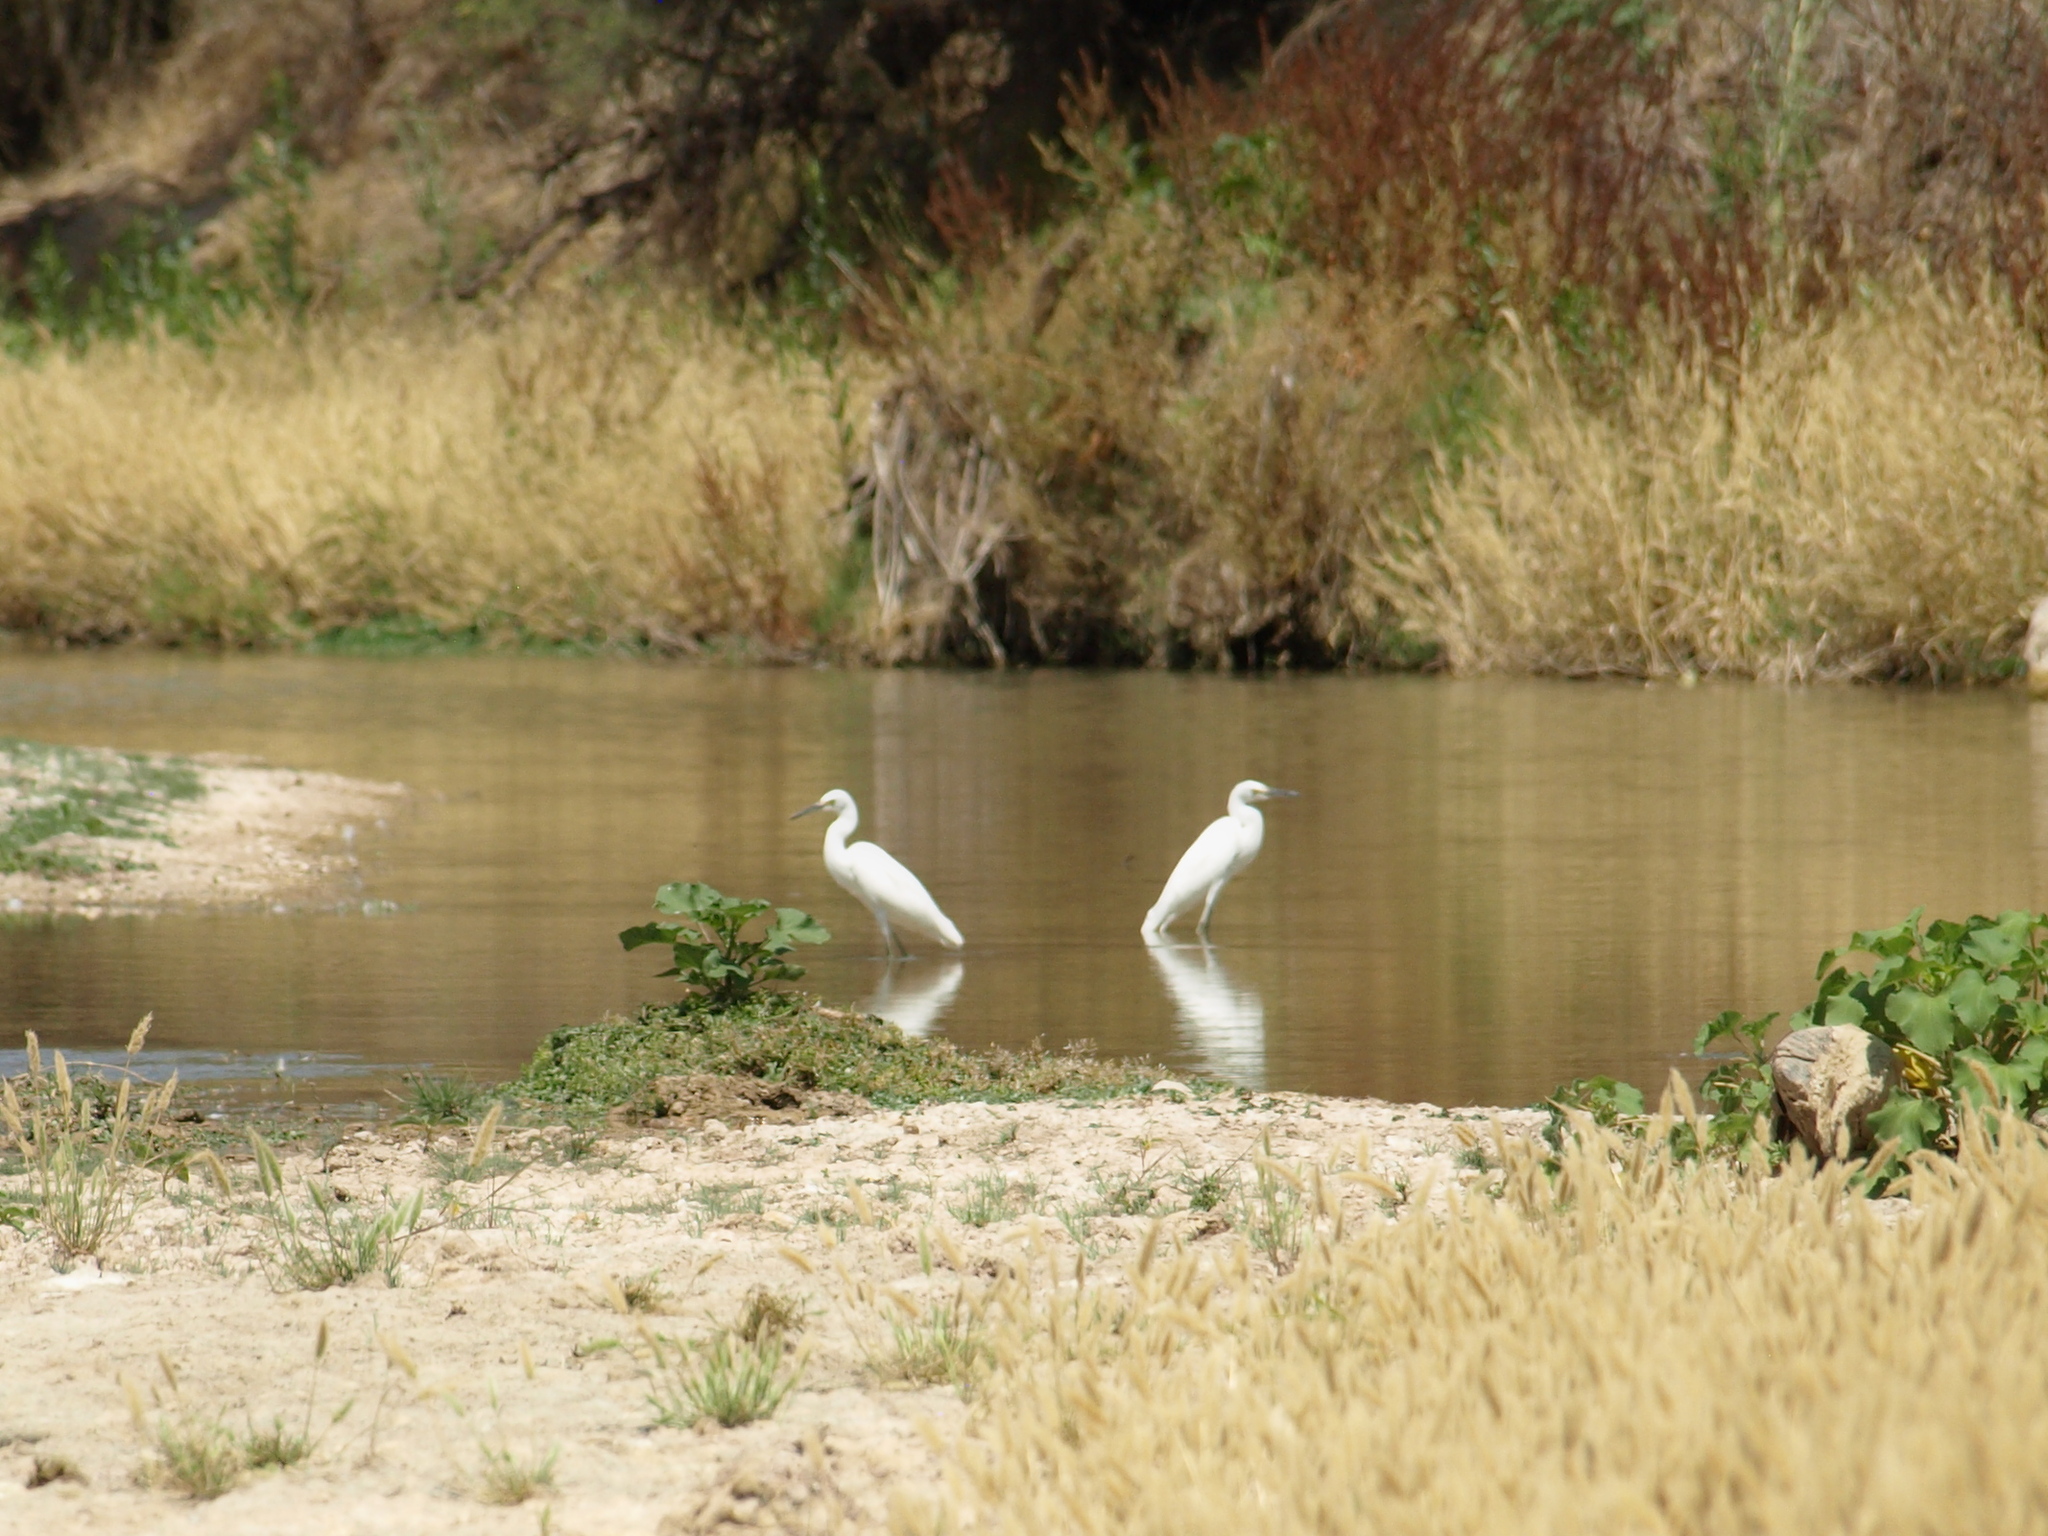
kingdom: Animalia
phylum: Chordata
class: Aves
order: Pelecaniformes
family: Ardeidae
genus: Egretta
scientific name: Egretta thula
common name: Snowy egret
